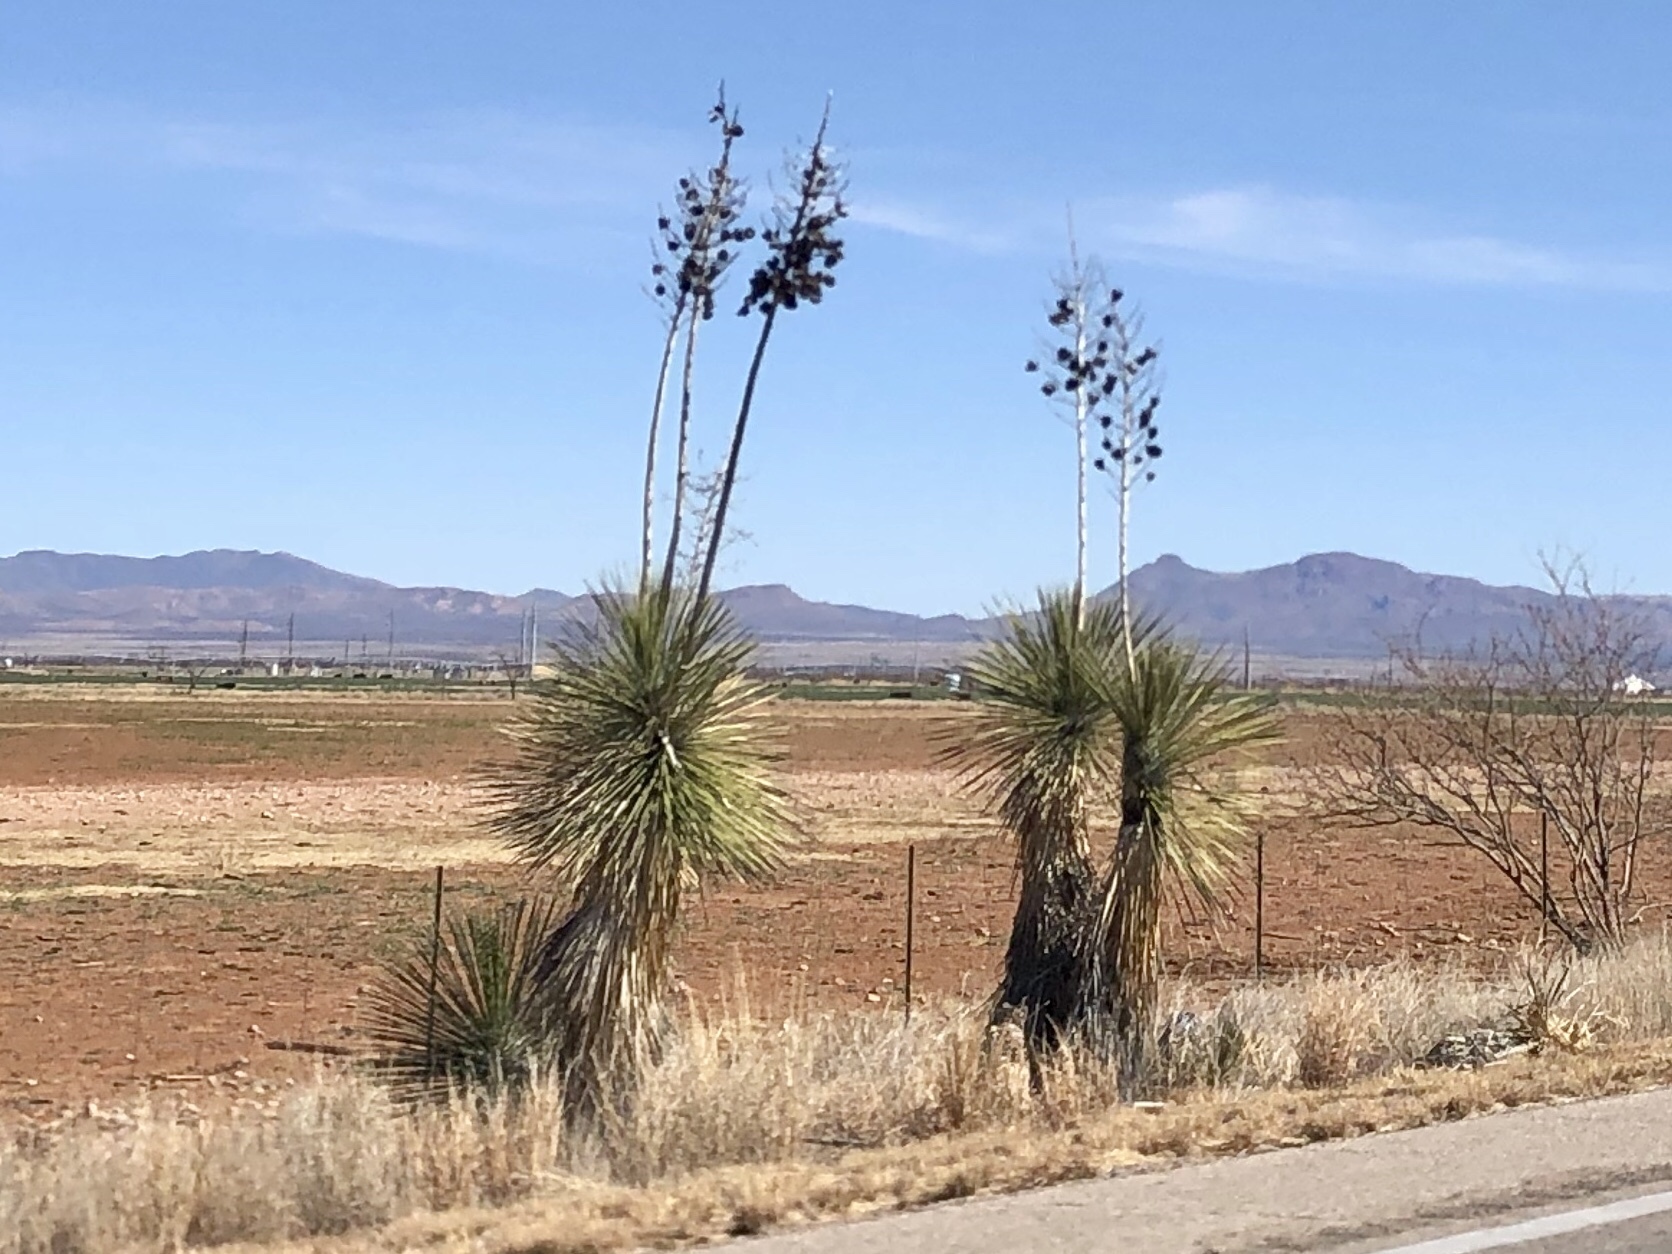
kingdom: Plantae
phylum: Tracheophyta
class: Liliopsida
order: Asparagales
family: Asparagaceae
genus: Yucca
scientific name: Yucca elata
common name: Palmella
